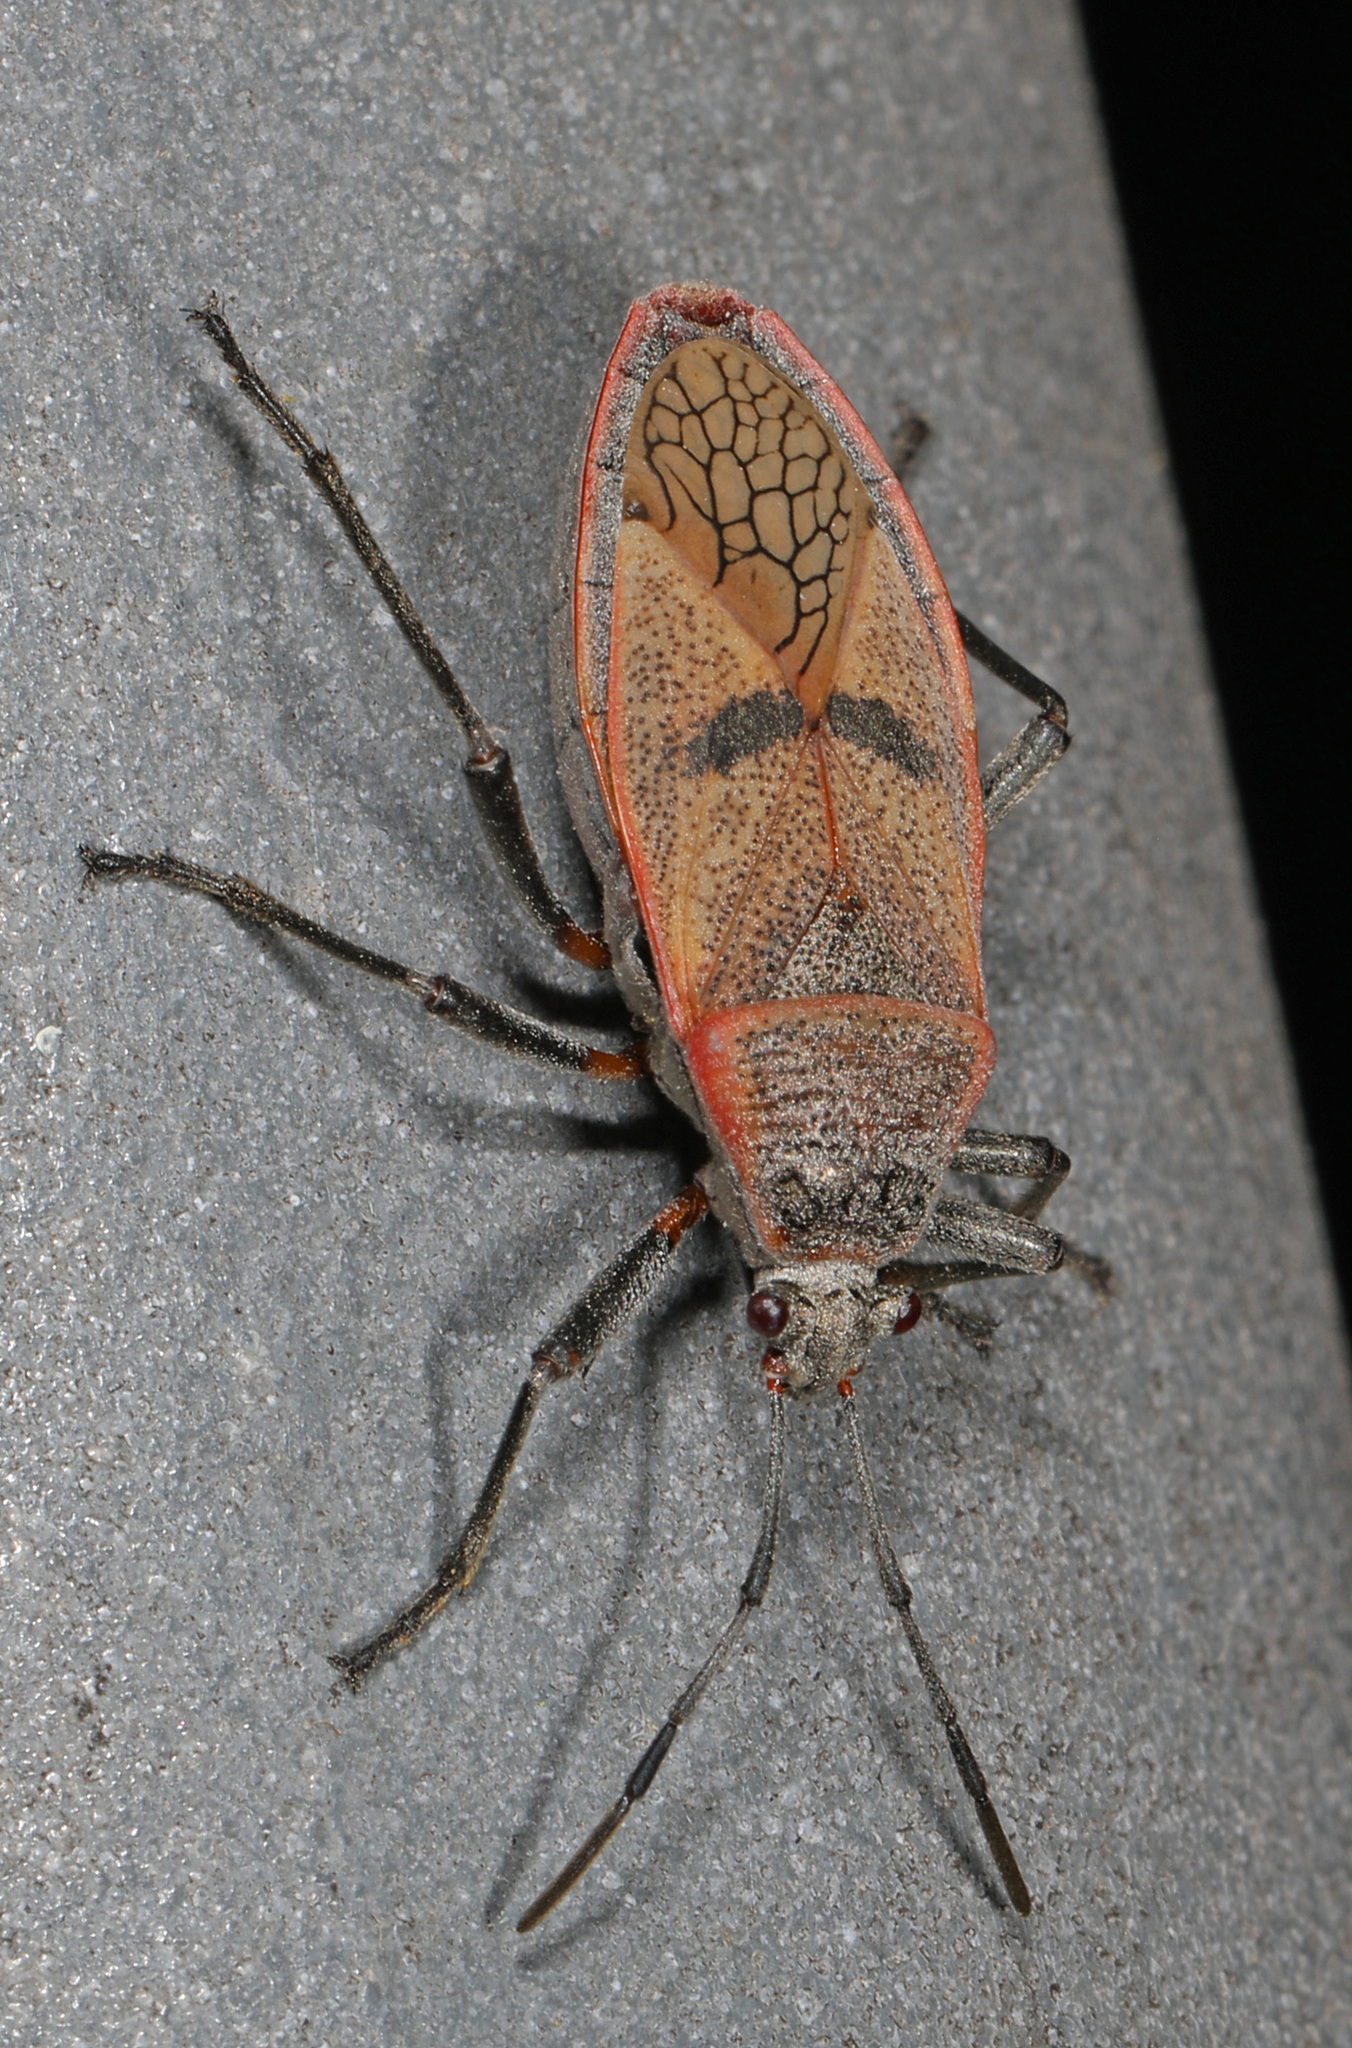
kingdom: Animalia
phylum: Arthropoda
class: Insecta
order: Hemiptera
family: Largidae
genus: Largus
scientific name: Largus maculatus
